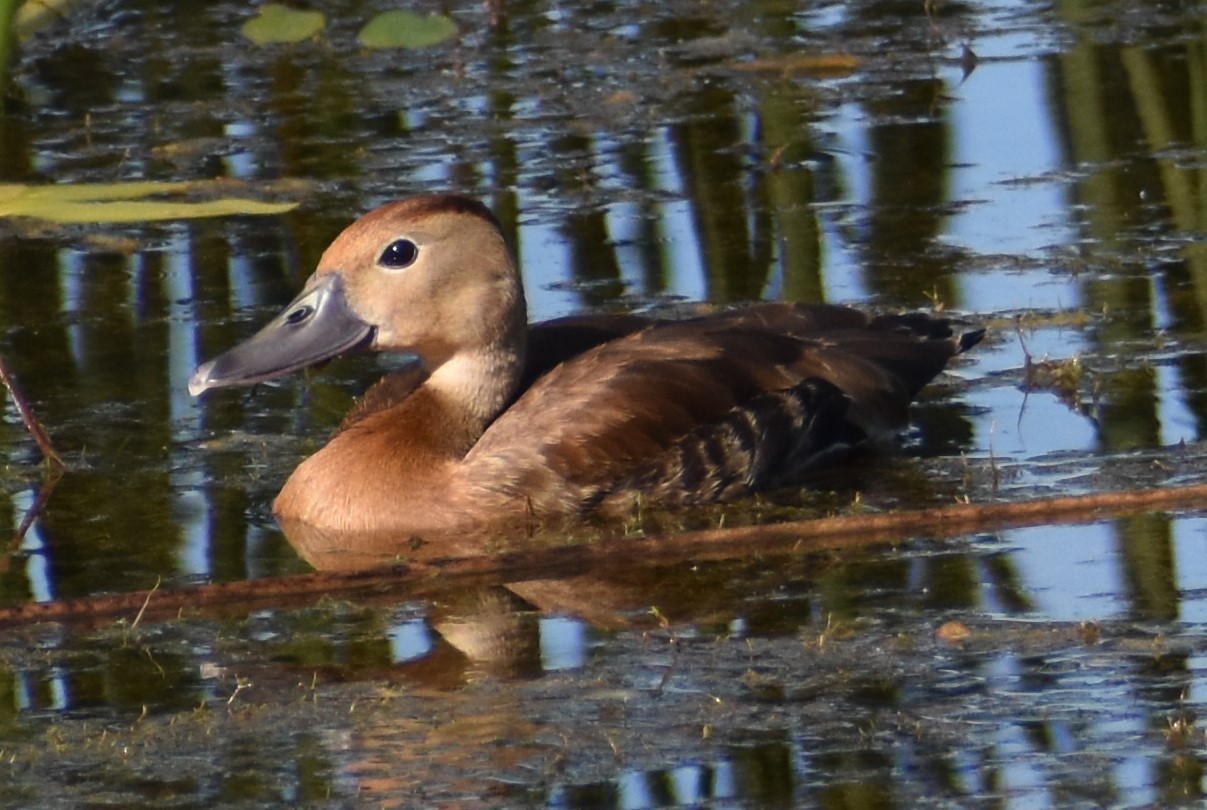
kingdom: Animalia
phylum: Chordata
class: Aves
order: Anseriformes
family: Anatidae
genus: Dendrocygna
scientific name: Dendrocygna autumnalis
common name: Black-bellied whistling duck
